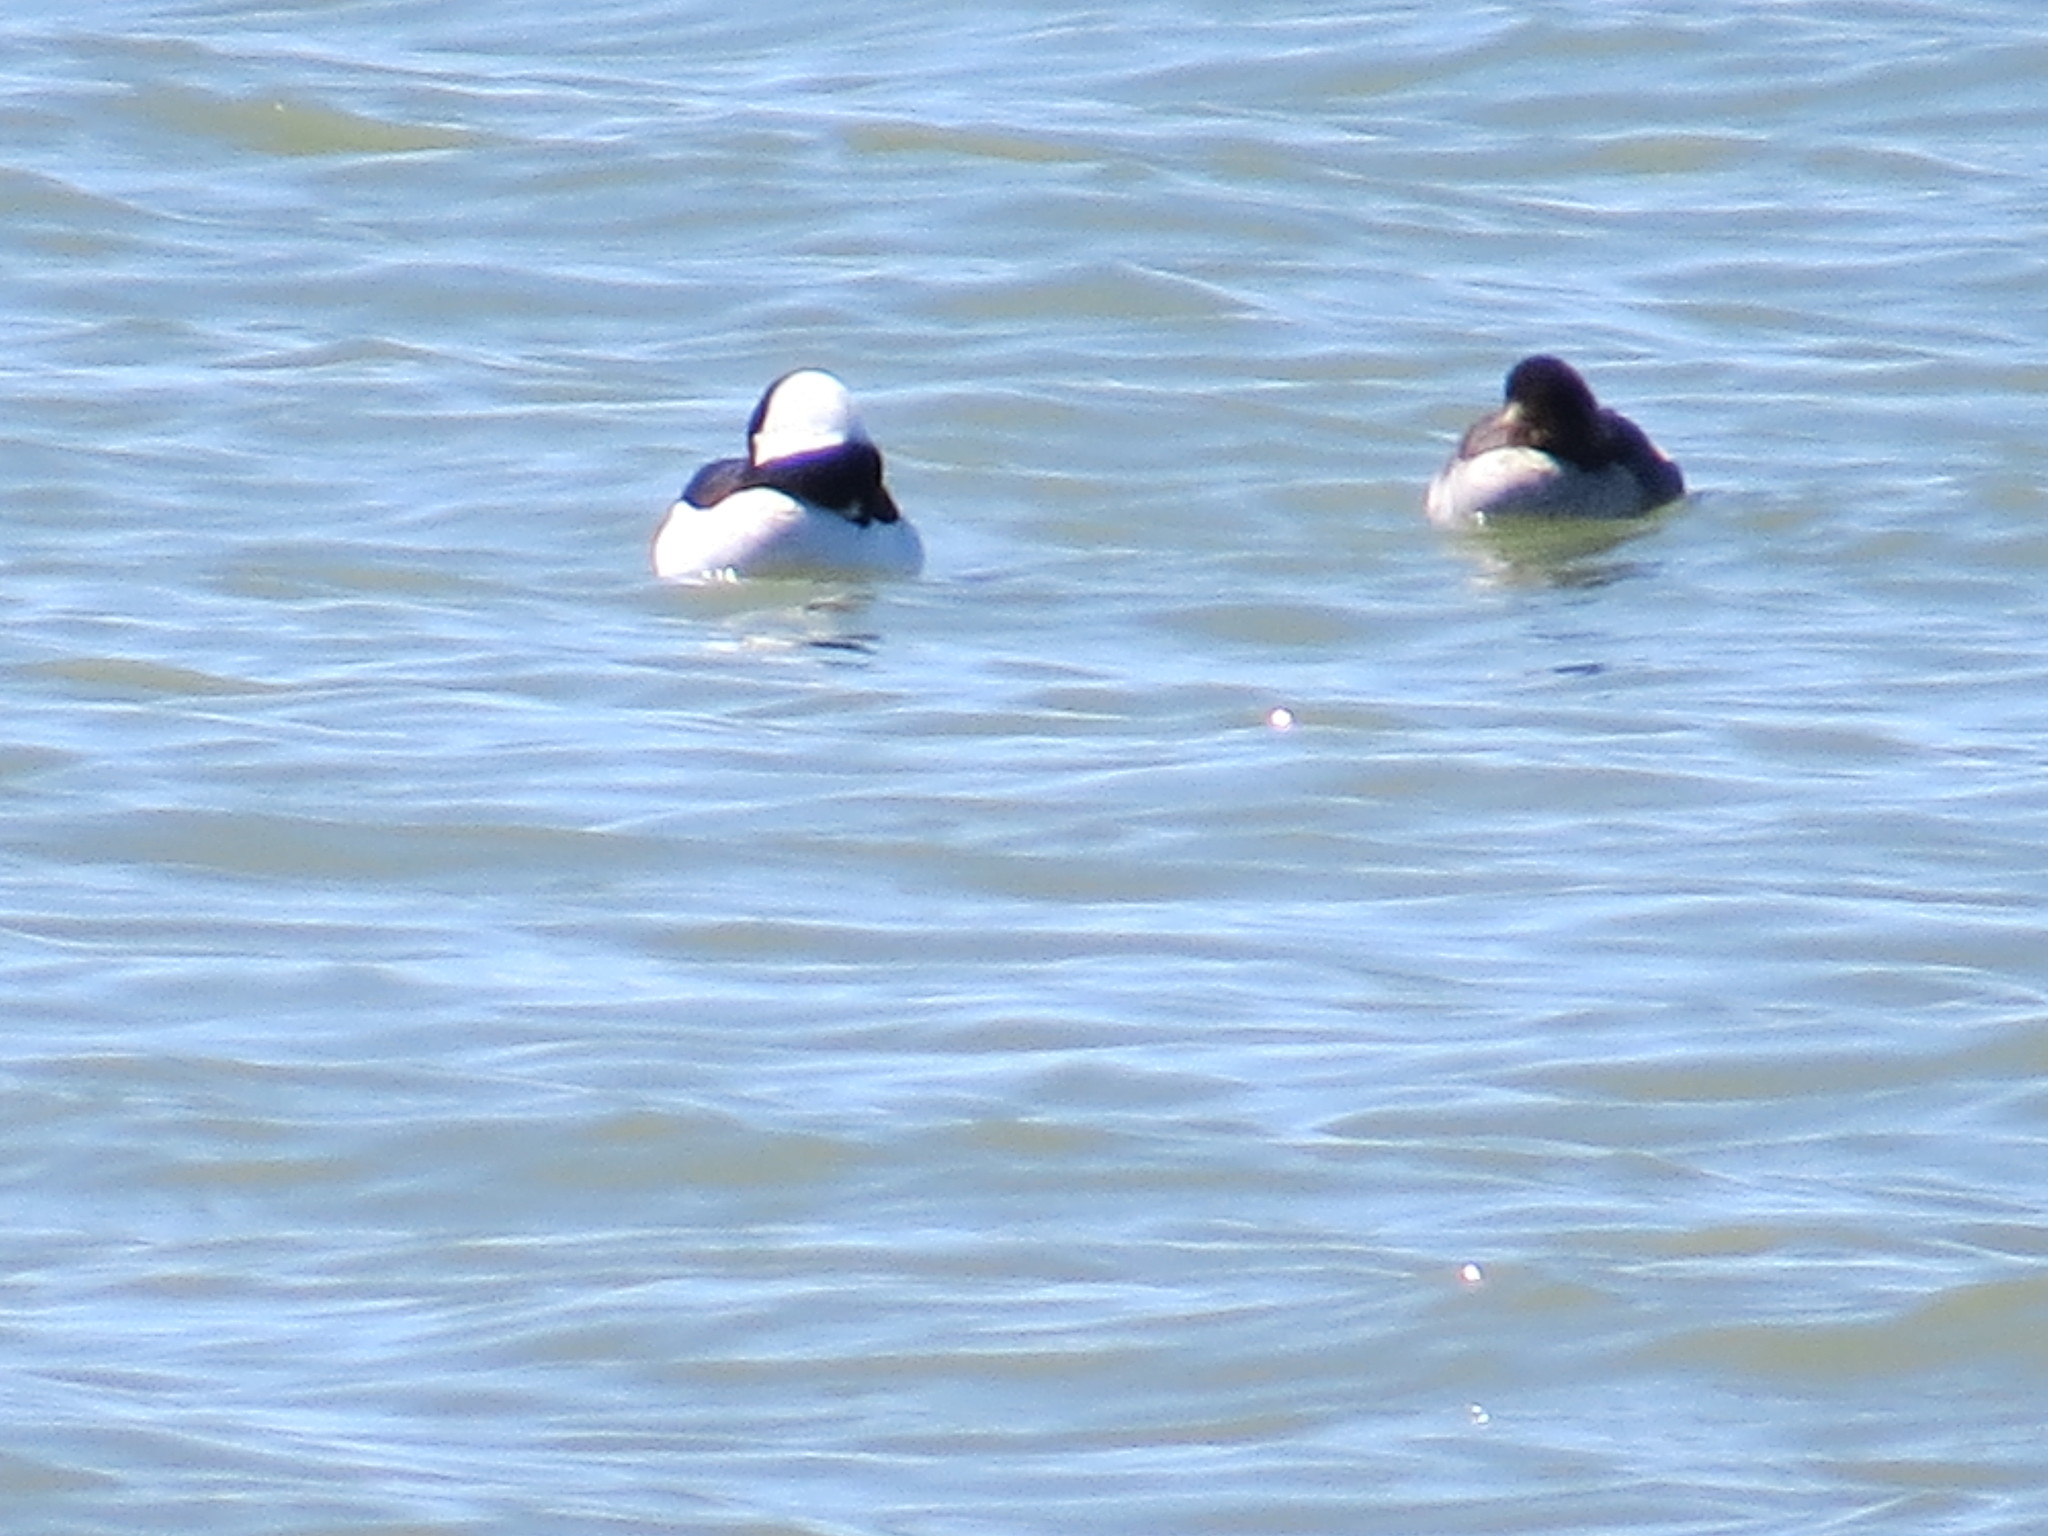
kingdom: Animalia
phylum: Chordata
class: Aves
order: Anseriformes
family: Anatidae
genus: Bucephala
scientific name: Bucephala albeola
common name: Bufflehead
